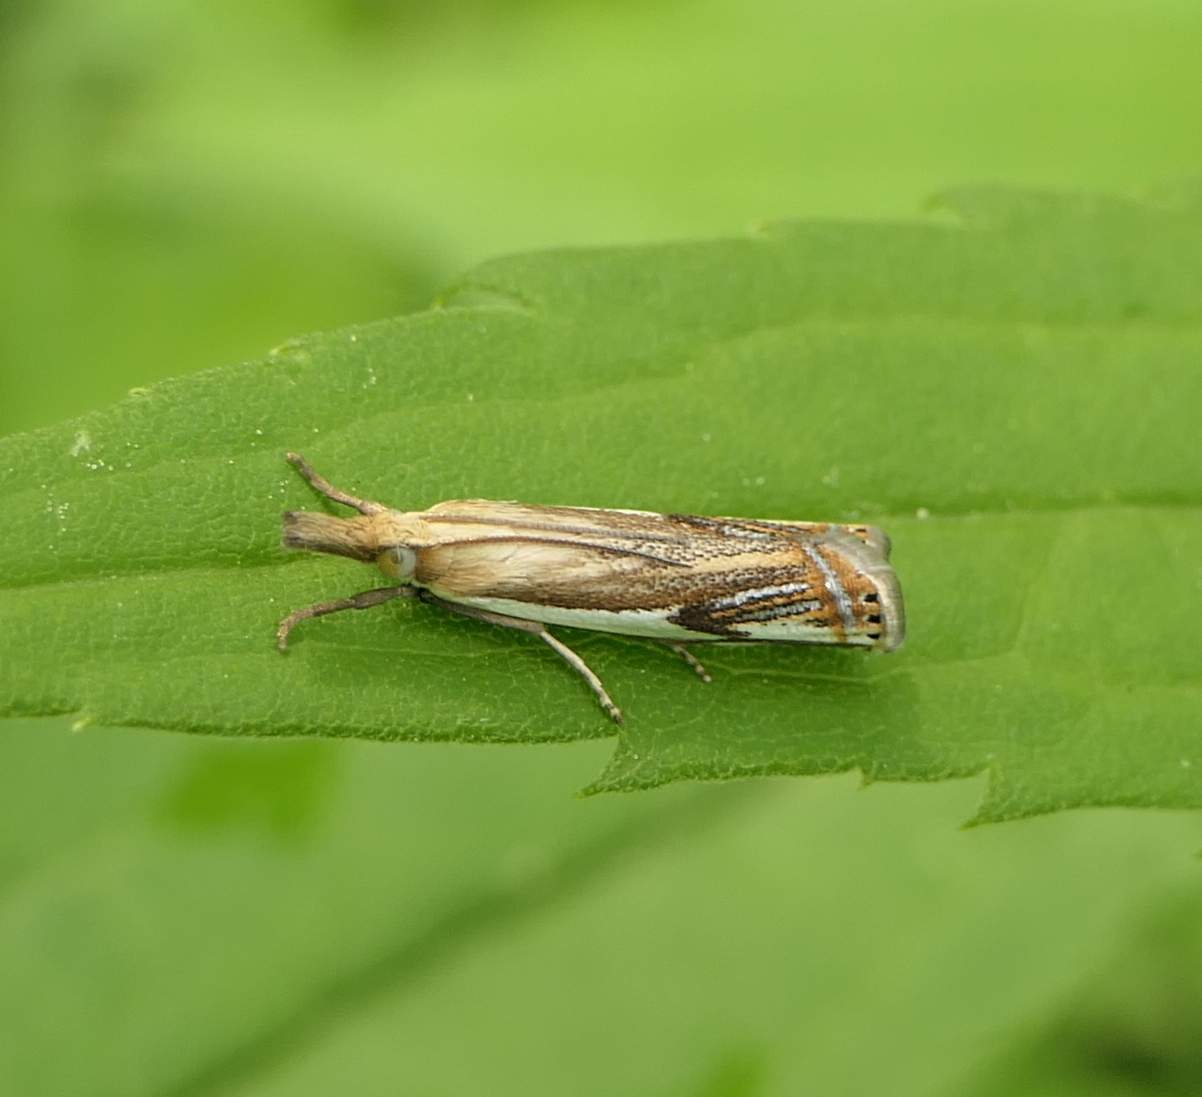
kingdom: Animalia
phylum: Arthropoda
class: Insecta
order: Lepidoptera
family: Crambidae
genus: Crambus
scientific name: Crambus agitatellus
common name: Double-banded grass-veneer
